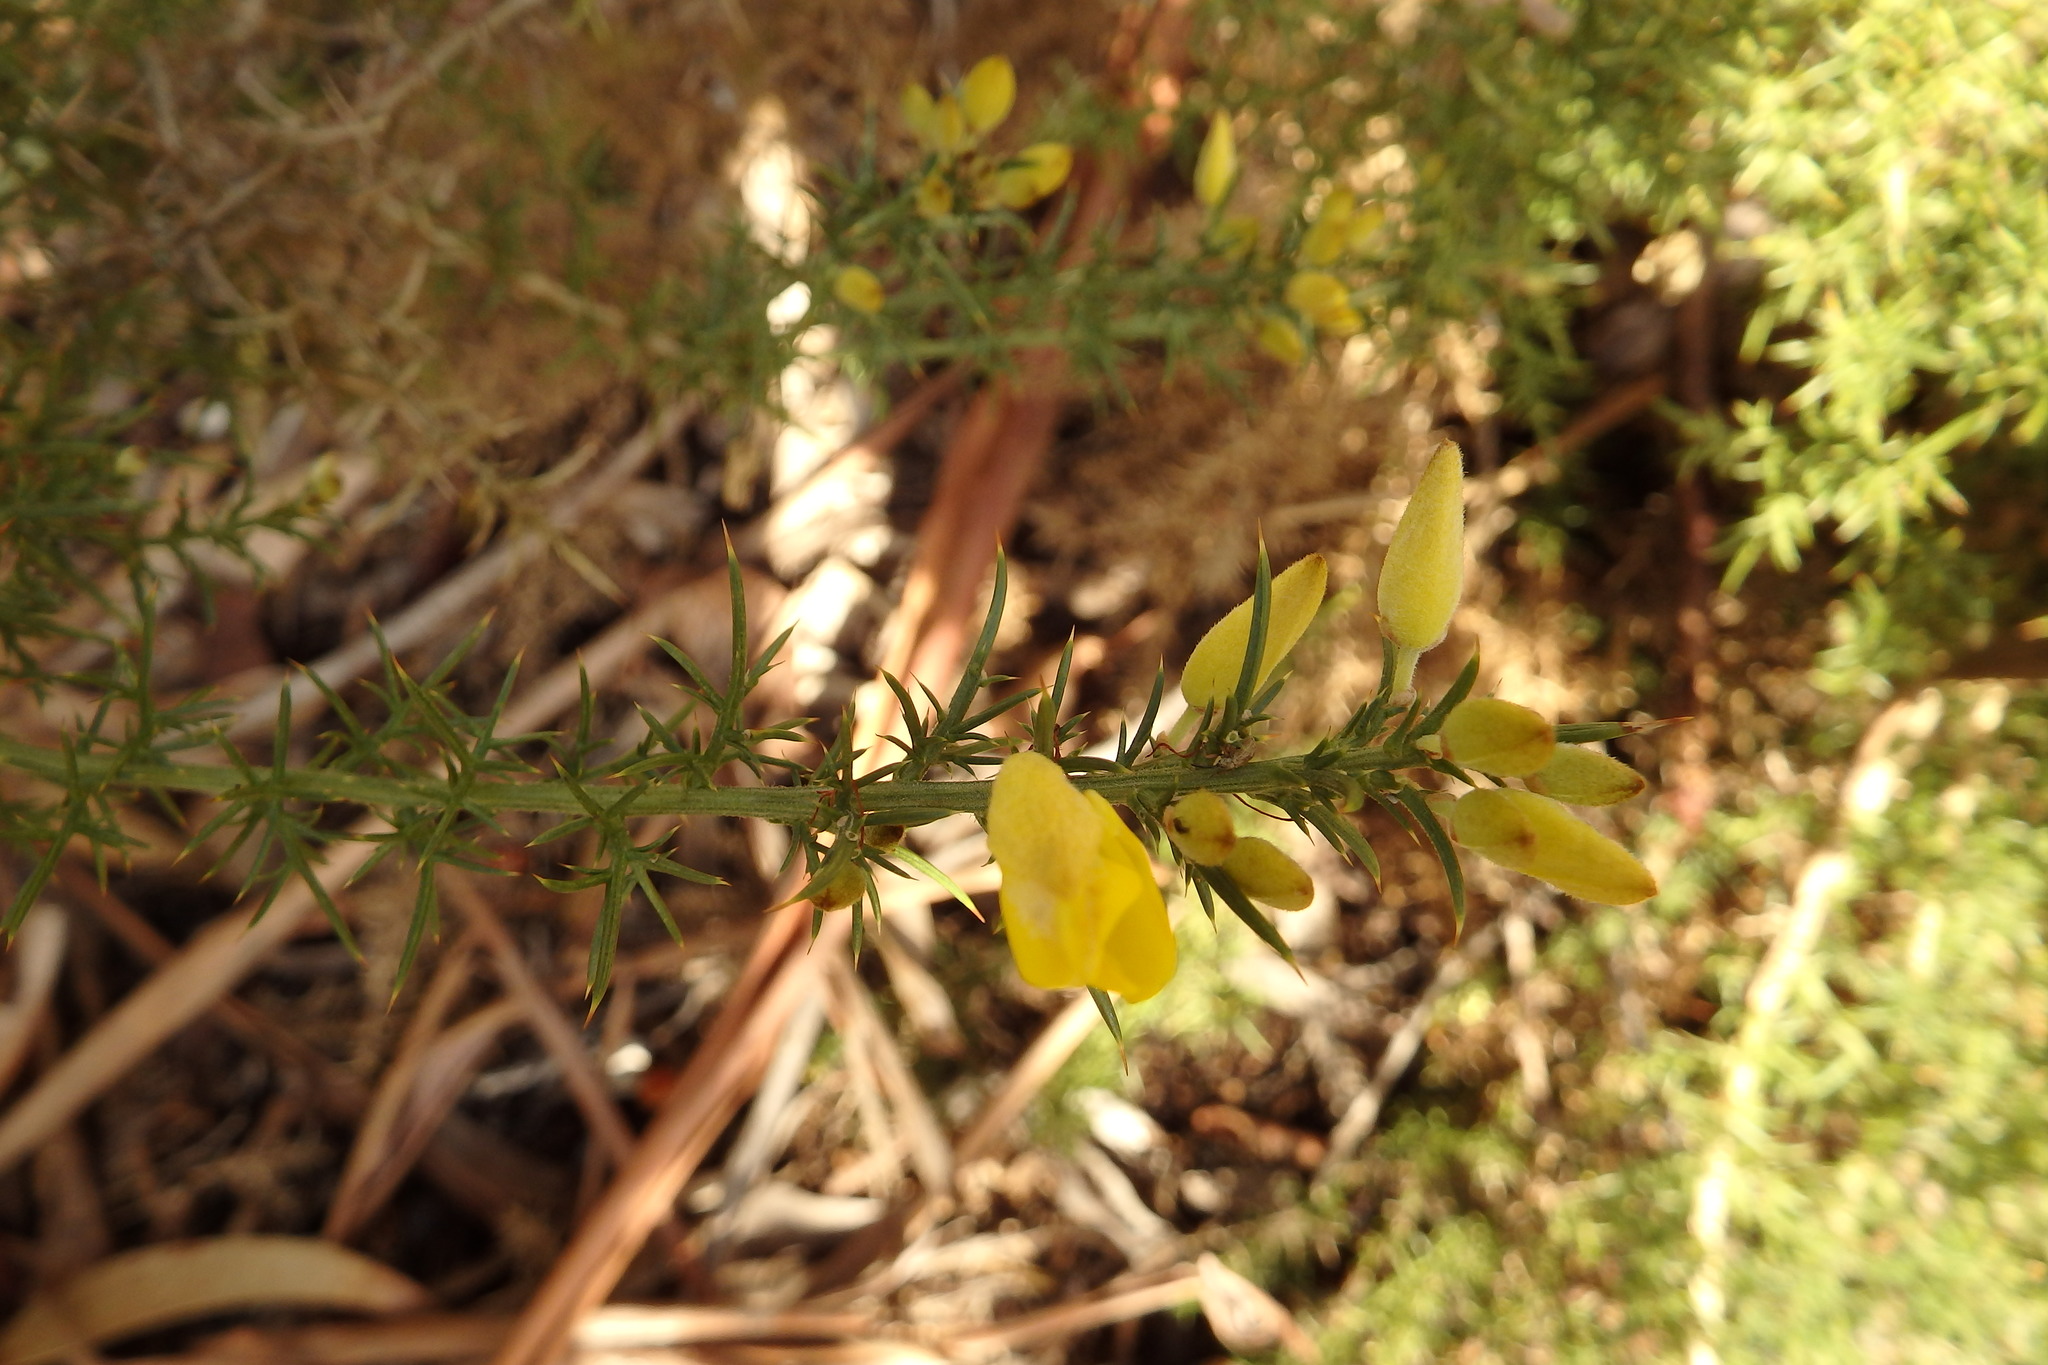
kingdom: Plantae
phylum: Tracheophyta
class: Magnoliopsida
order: Fabales
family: Fabaceae
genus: Ulex
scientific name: Ulex europaeus
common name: Common gorse
